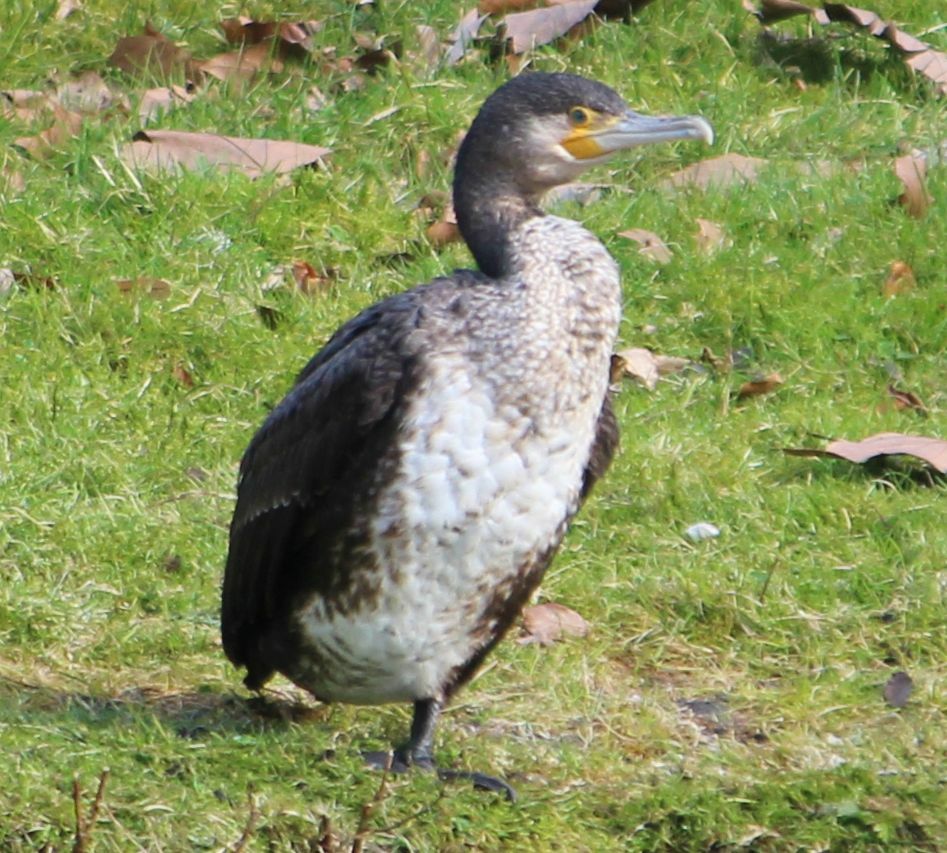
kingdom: Animalia
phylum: Chordata
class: Aves
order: Suliformes
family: Phalacrocoracidae
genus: Phalacrocorax
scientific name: Phalacrocorax carbo
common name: Great cormorant
